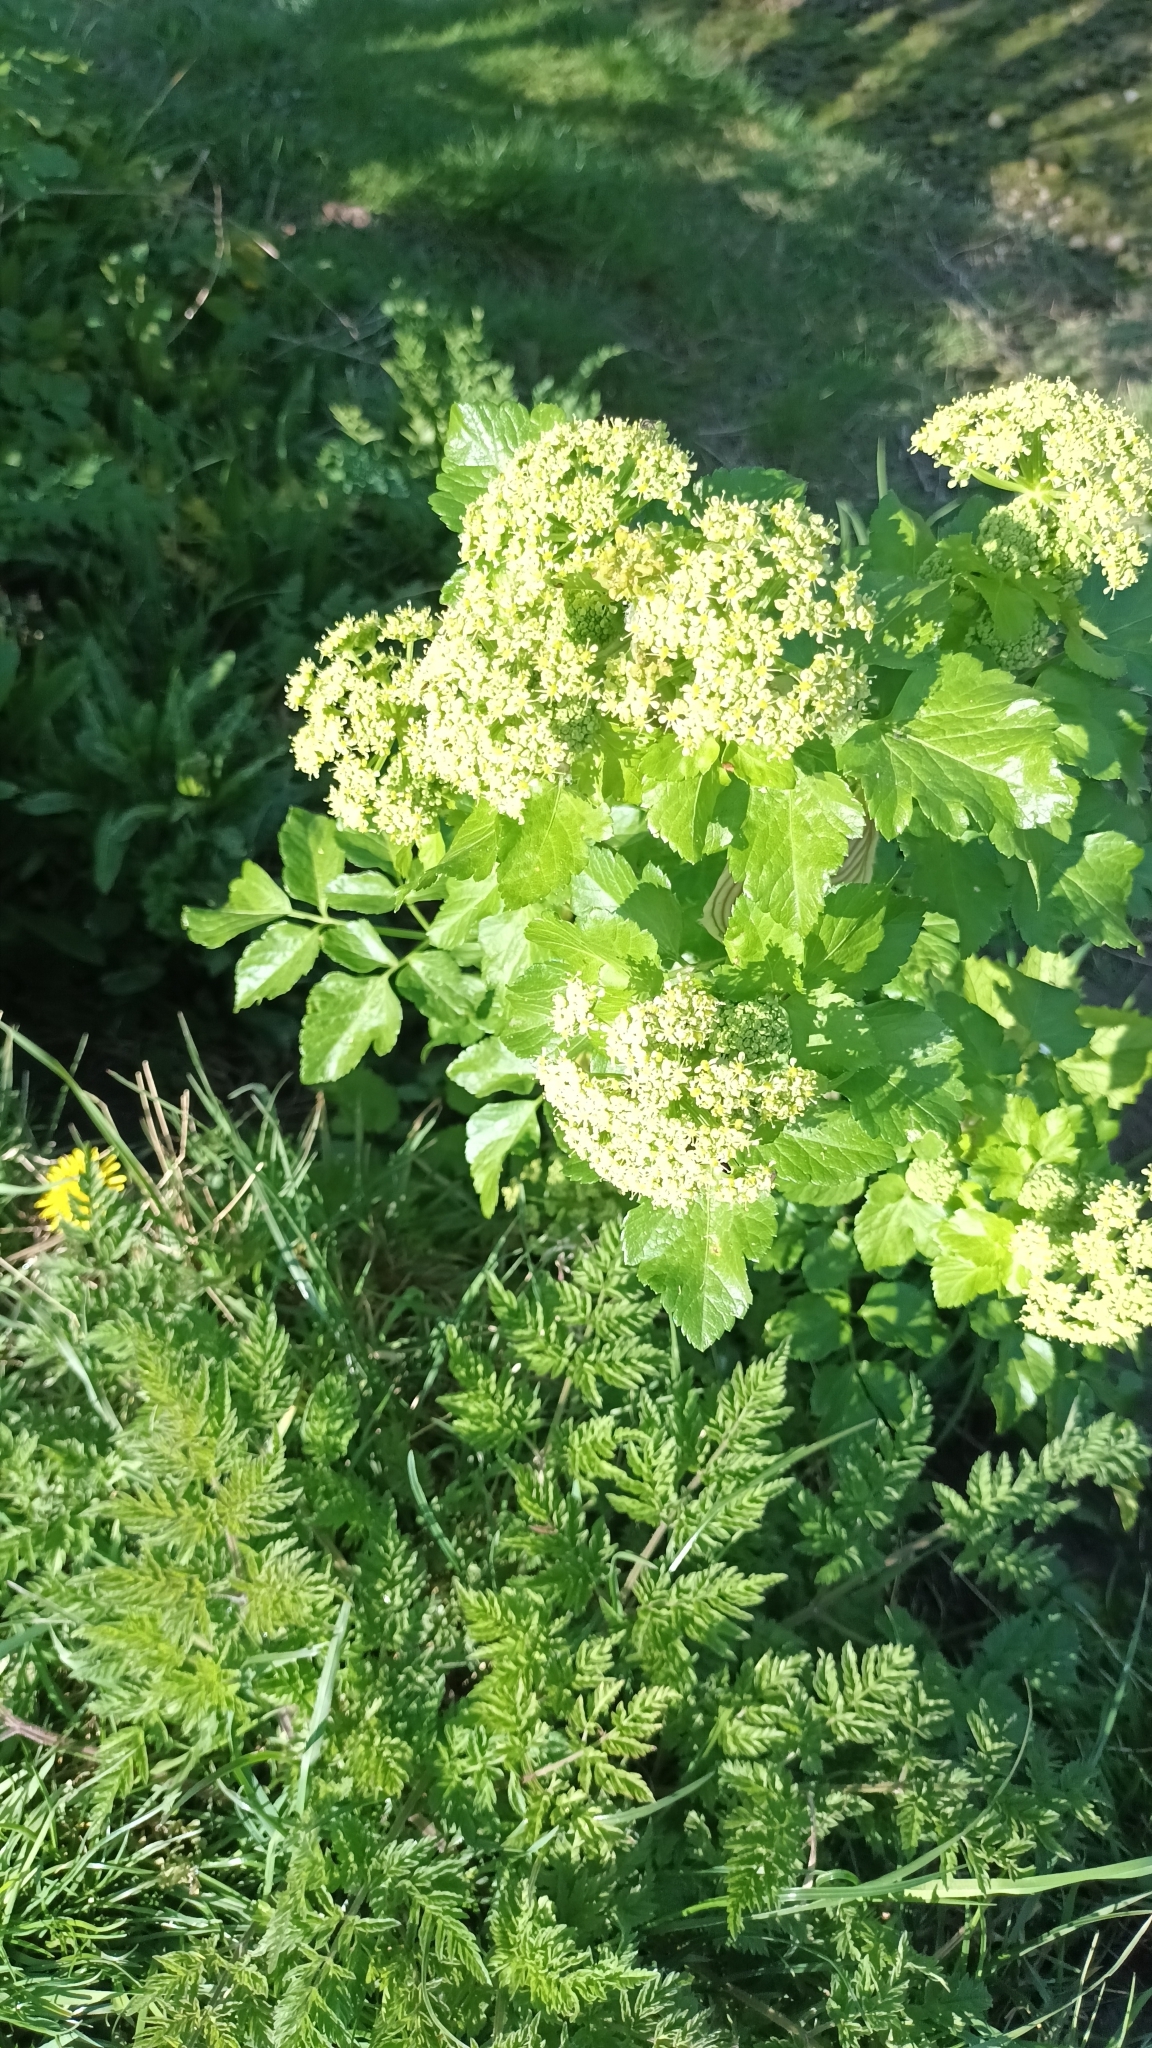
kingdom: Plantae
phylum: Tracheophyta
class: Magnoliopsida
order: Apiales
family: Apiaceae
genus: Smyrnium
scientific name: Smyrnium olusatrum
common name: Alexanders
